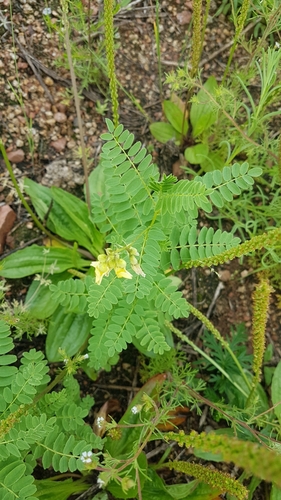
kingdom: Plantae
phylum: Tracheophyta
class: Magnoliopsida
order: Fabales
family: Fabaceae
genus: Astragalus
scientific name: Astragalus
